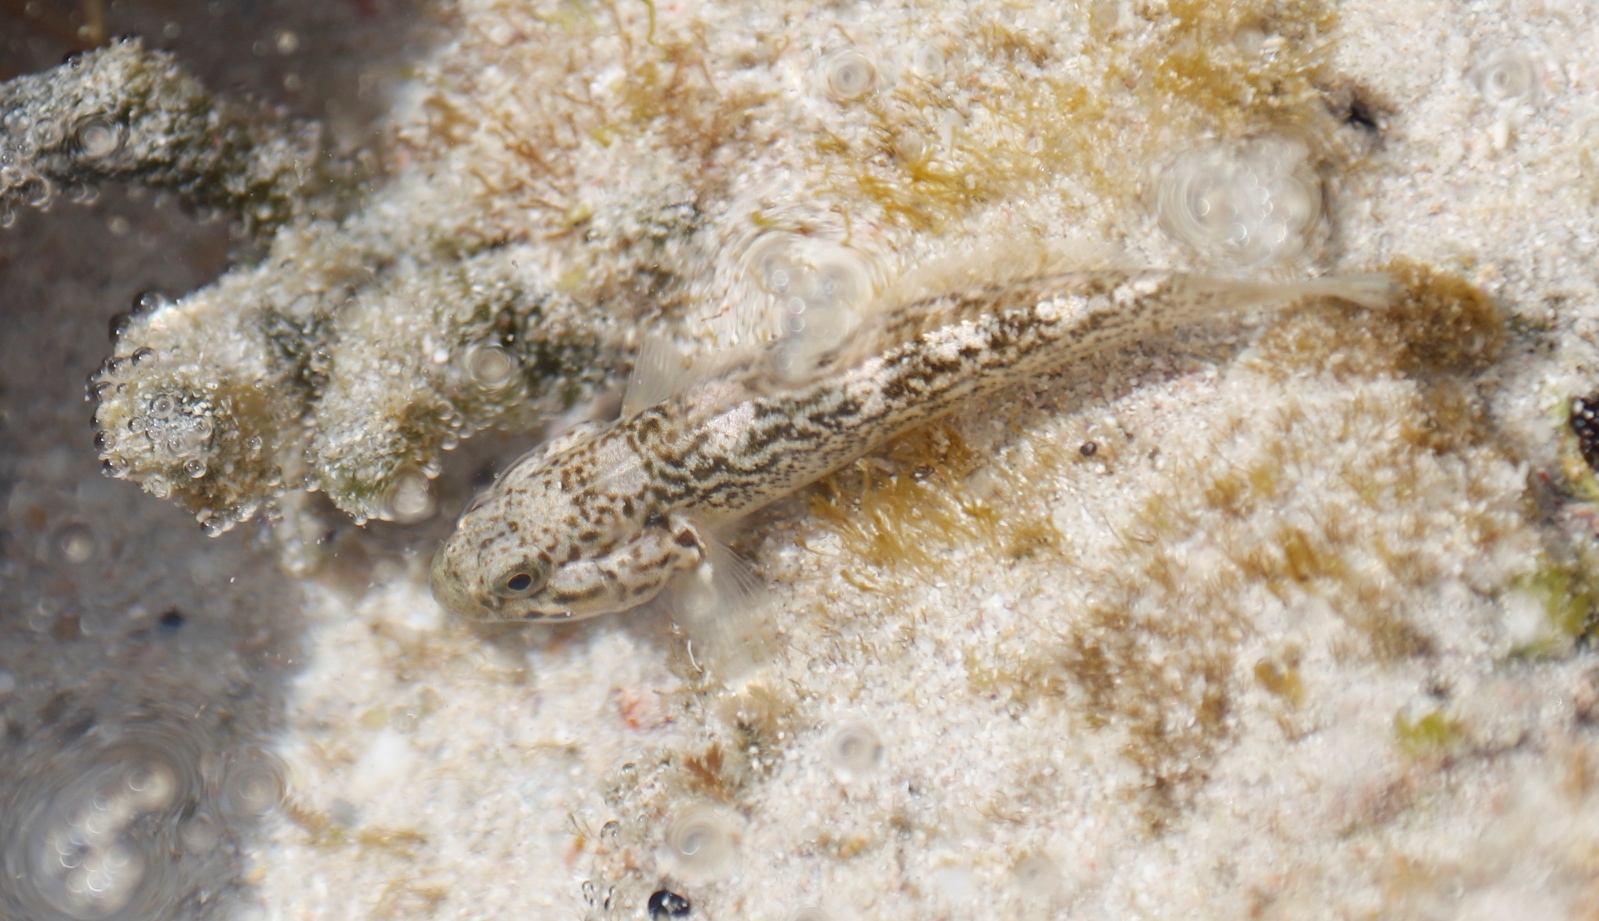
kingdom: Animalia
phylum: Chordata
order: Perciformes
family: Gobiidae
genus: Caffrogobius
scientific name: Caffrogobius caffer
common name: Banded goby
